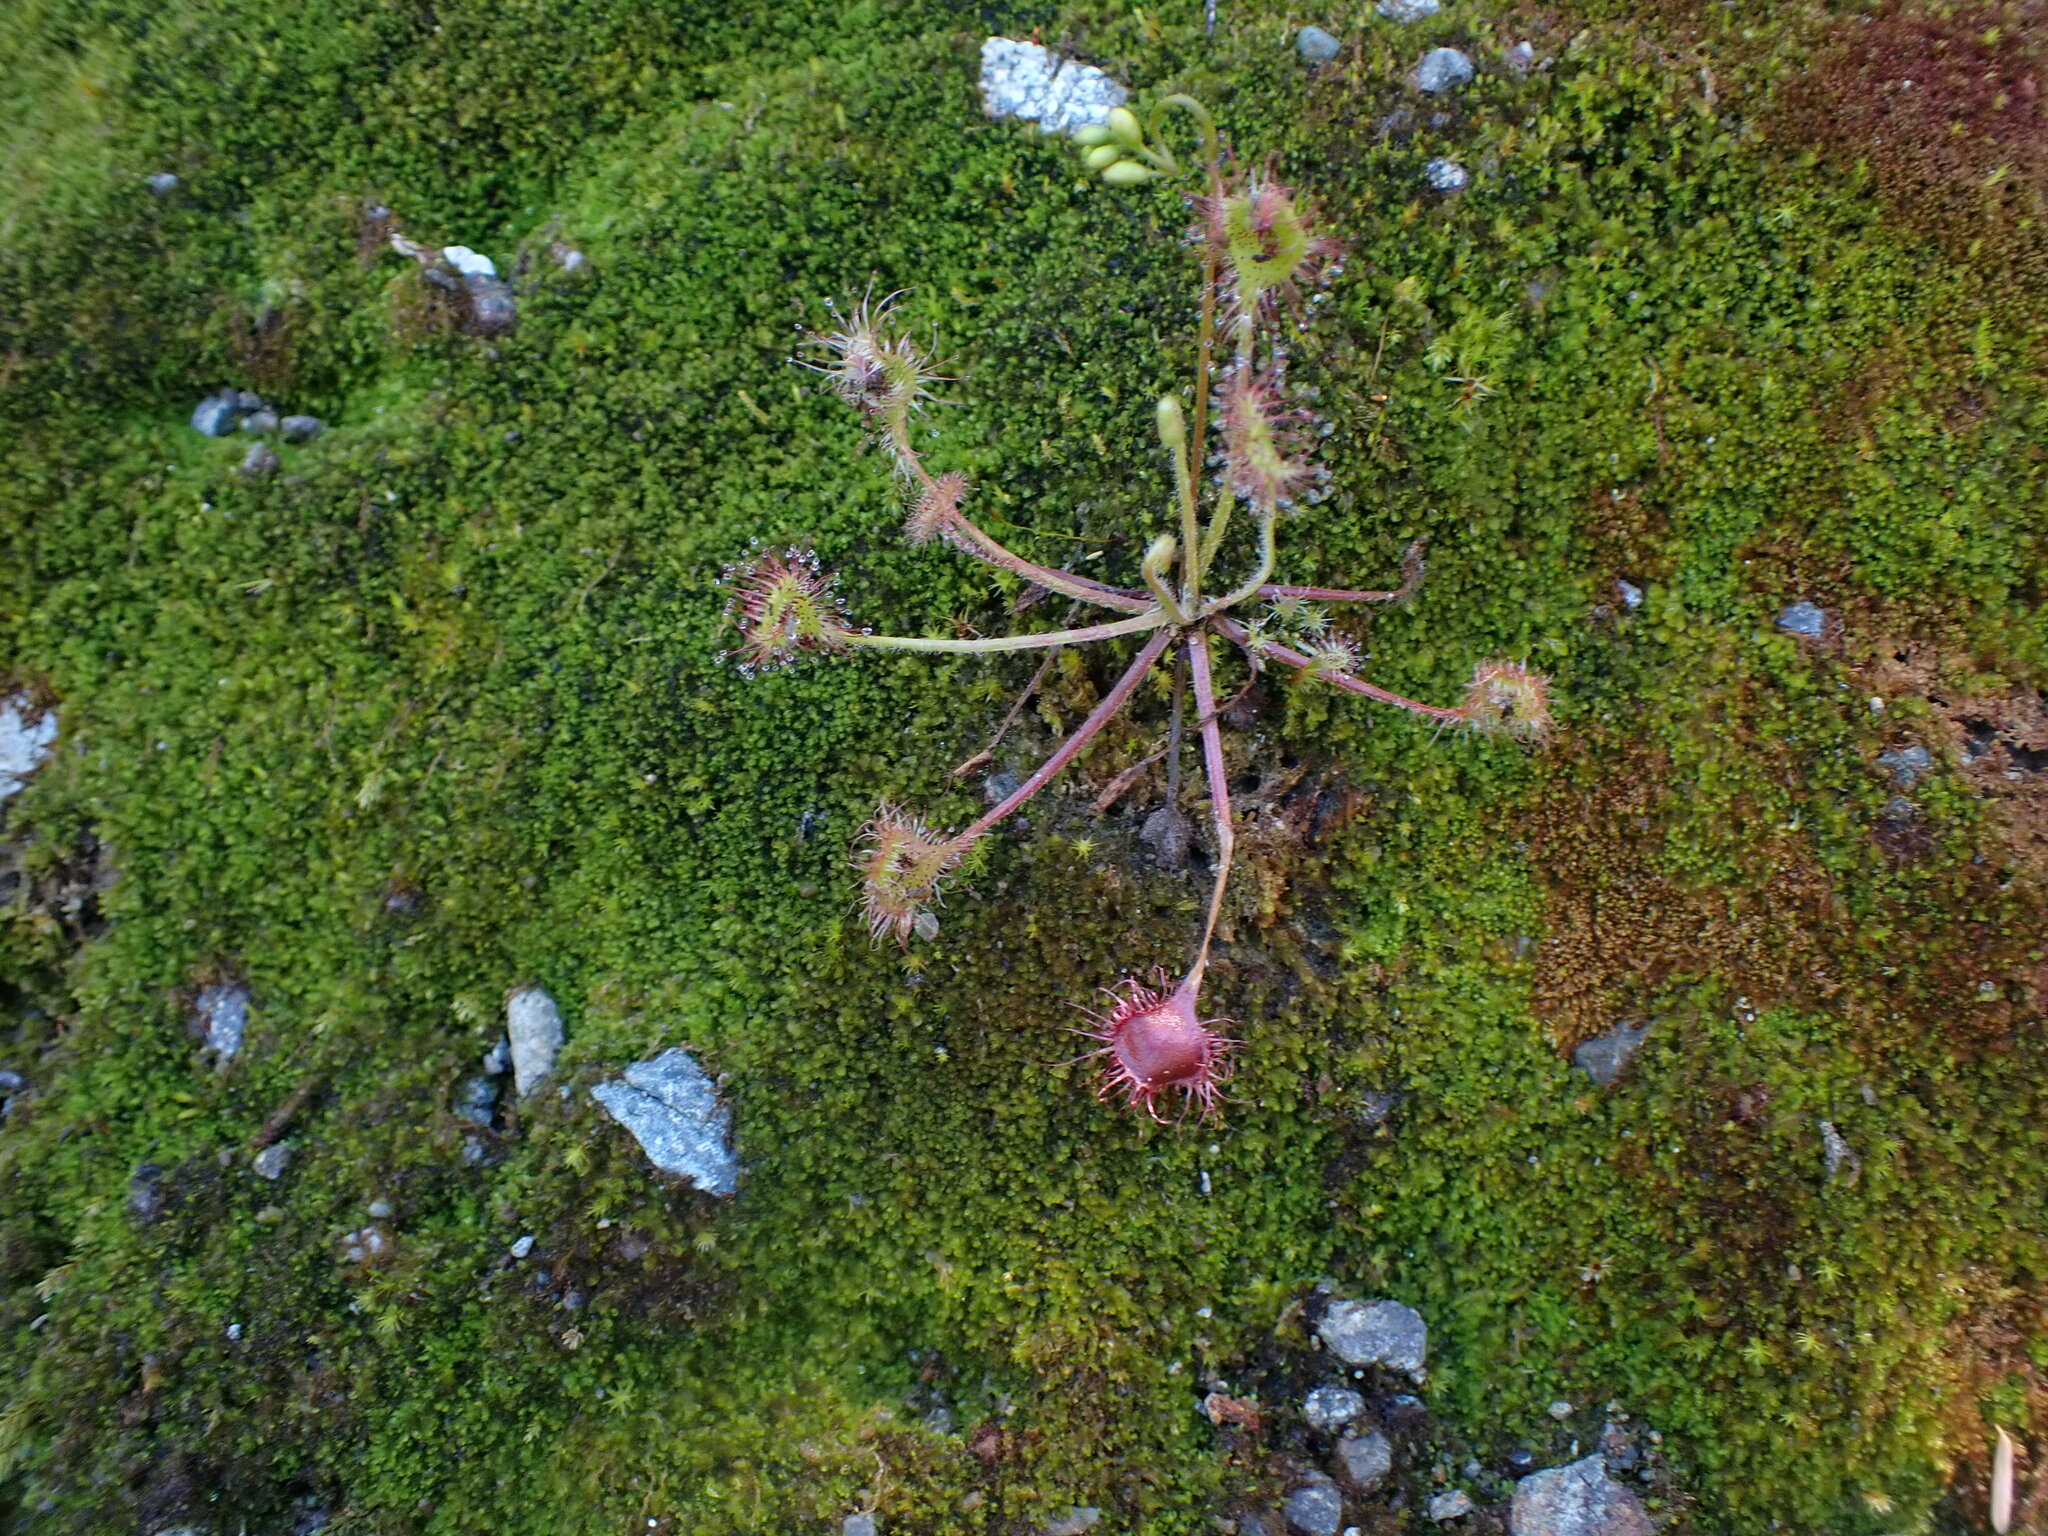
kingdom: Plantae
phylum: Tracheophyta
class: Magnoliopsida
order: Caryophyllales
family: Droseraceae
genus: Drosera
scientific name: Drosera rotundifolia
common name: Round-leaved sundew
